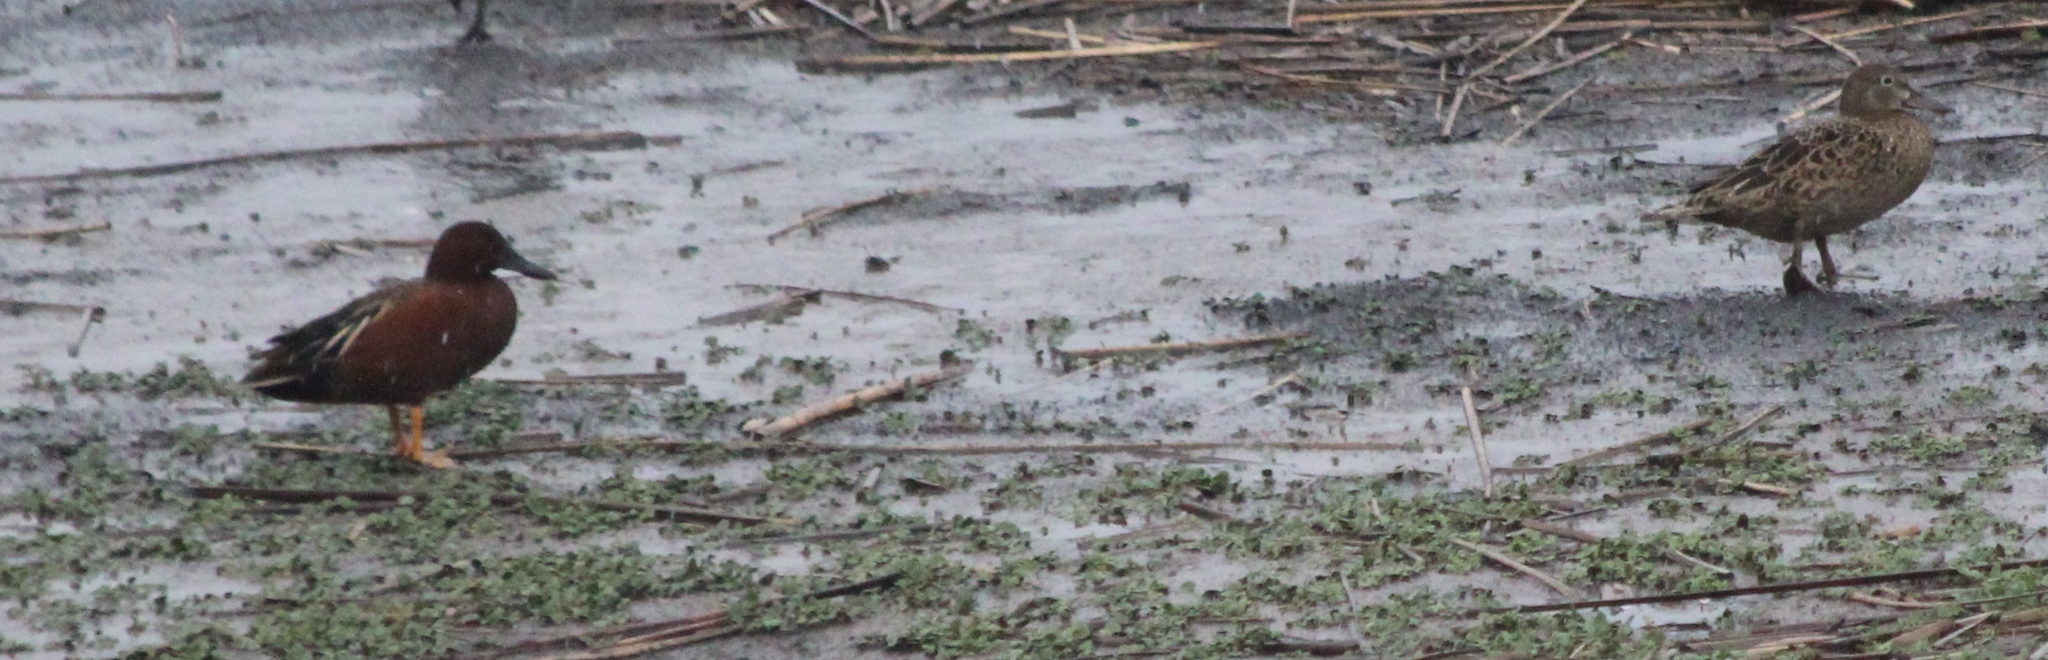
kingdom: Animalia
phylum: Chordata
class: Aves
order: Anseriformes
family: Anatidae
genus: Spatula
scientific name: Spatula cyanoptera
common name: Cinnamon teal
